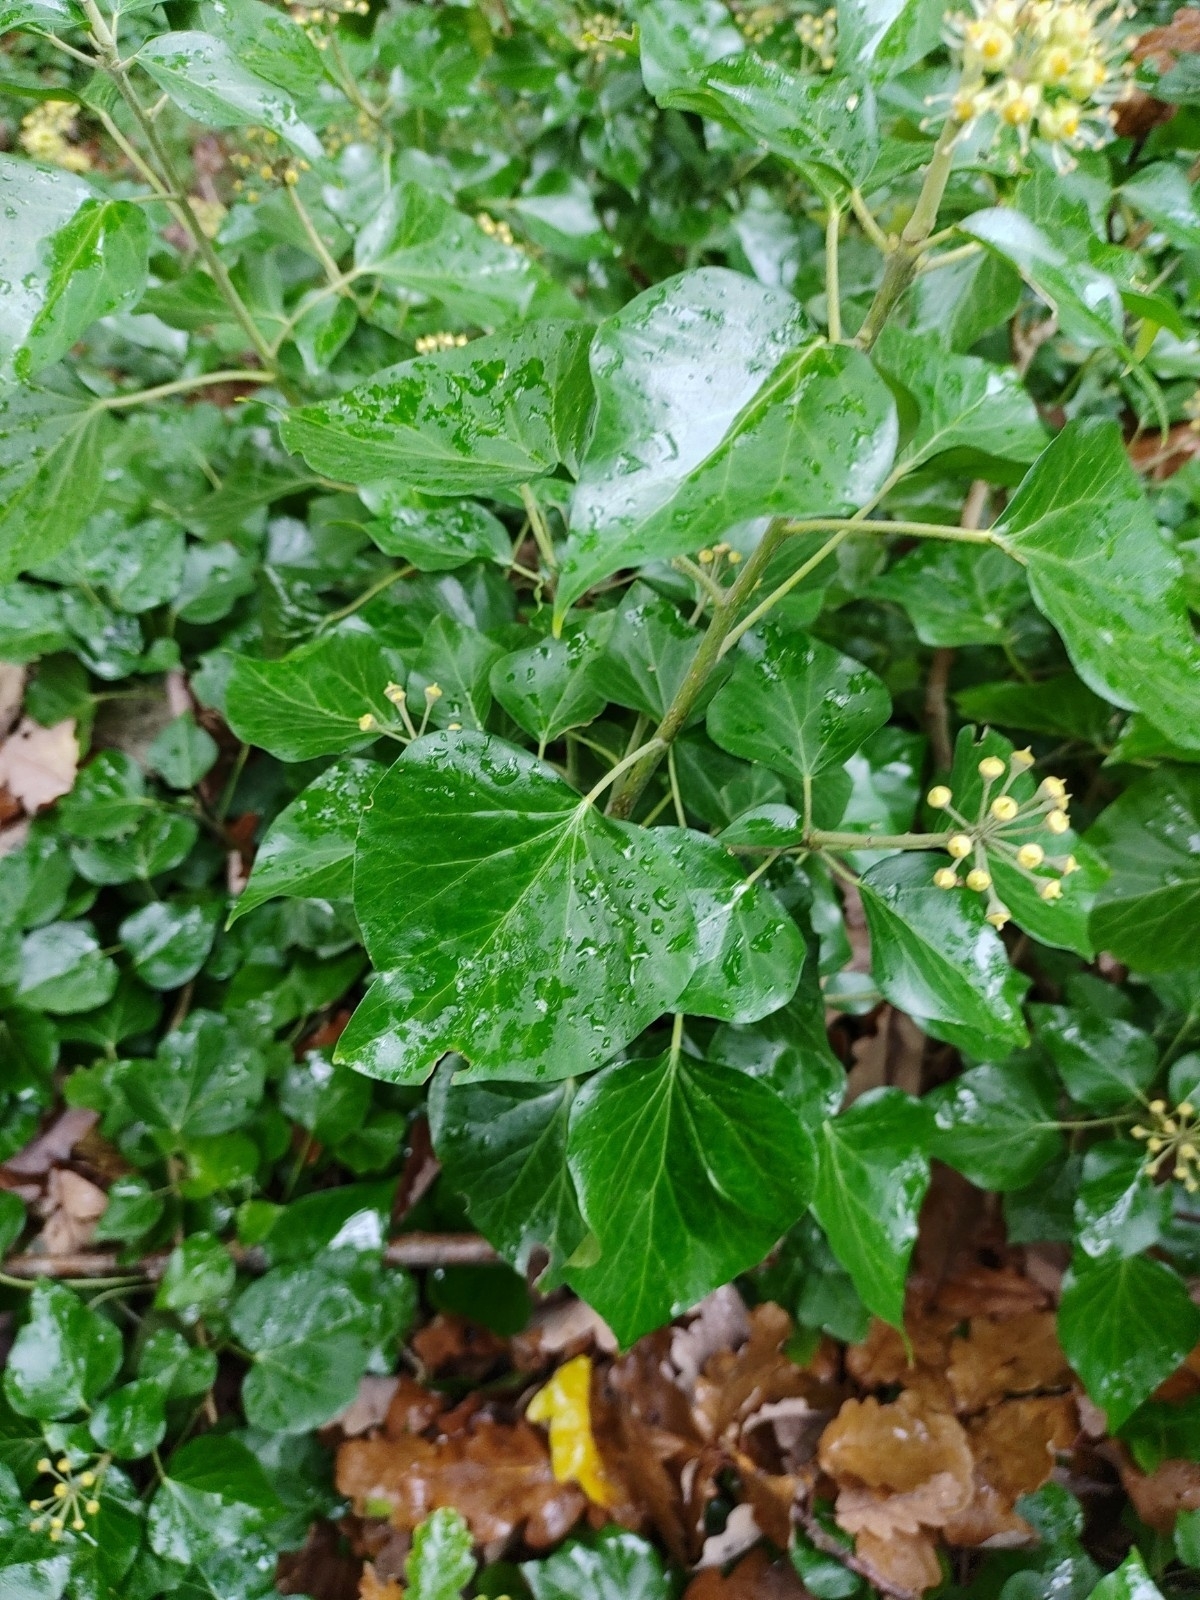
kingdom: Plantae
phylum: Tracheophyta
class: Magnoliopsida
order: Apiales
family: Araliaceae
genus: Hedera
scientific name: Hedera helix
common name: Ivy
